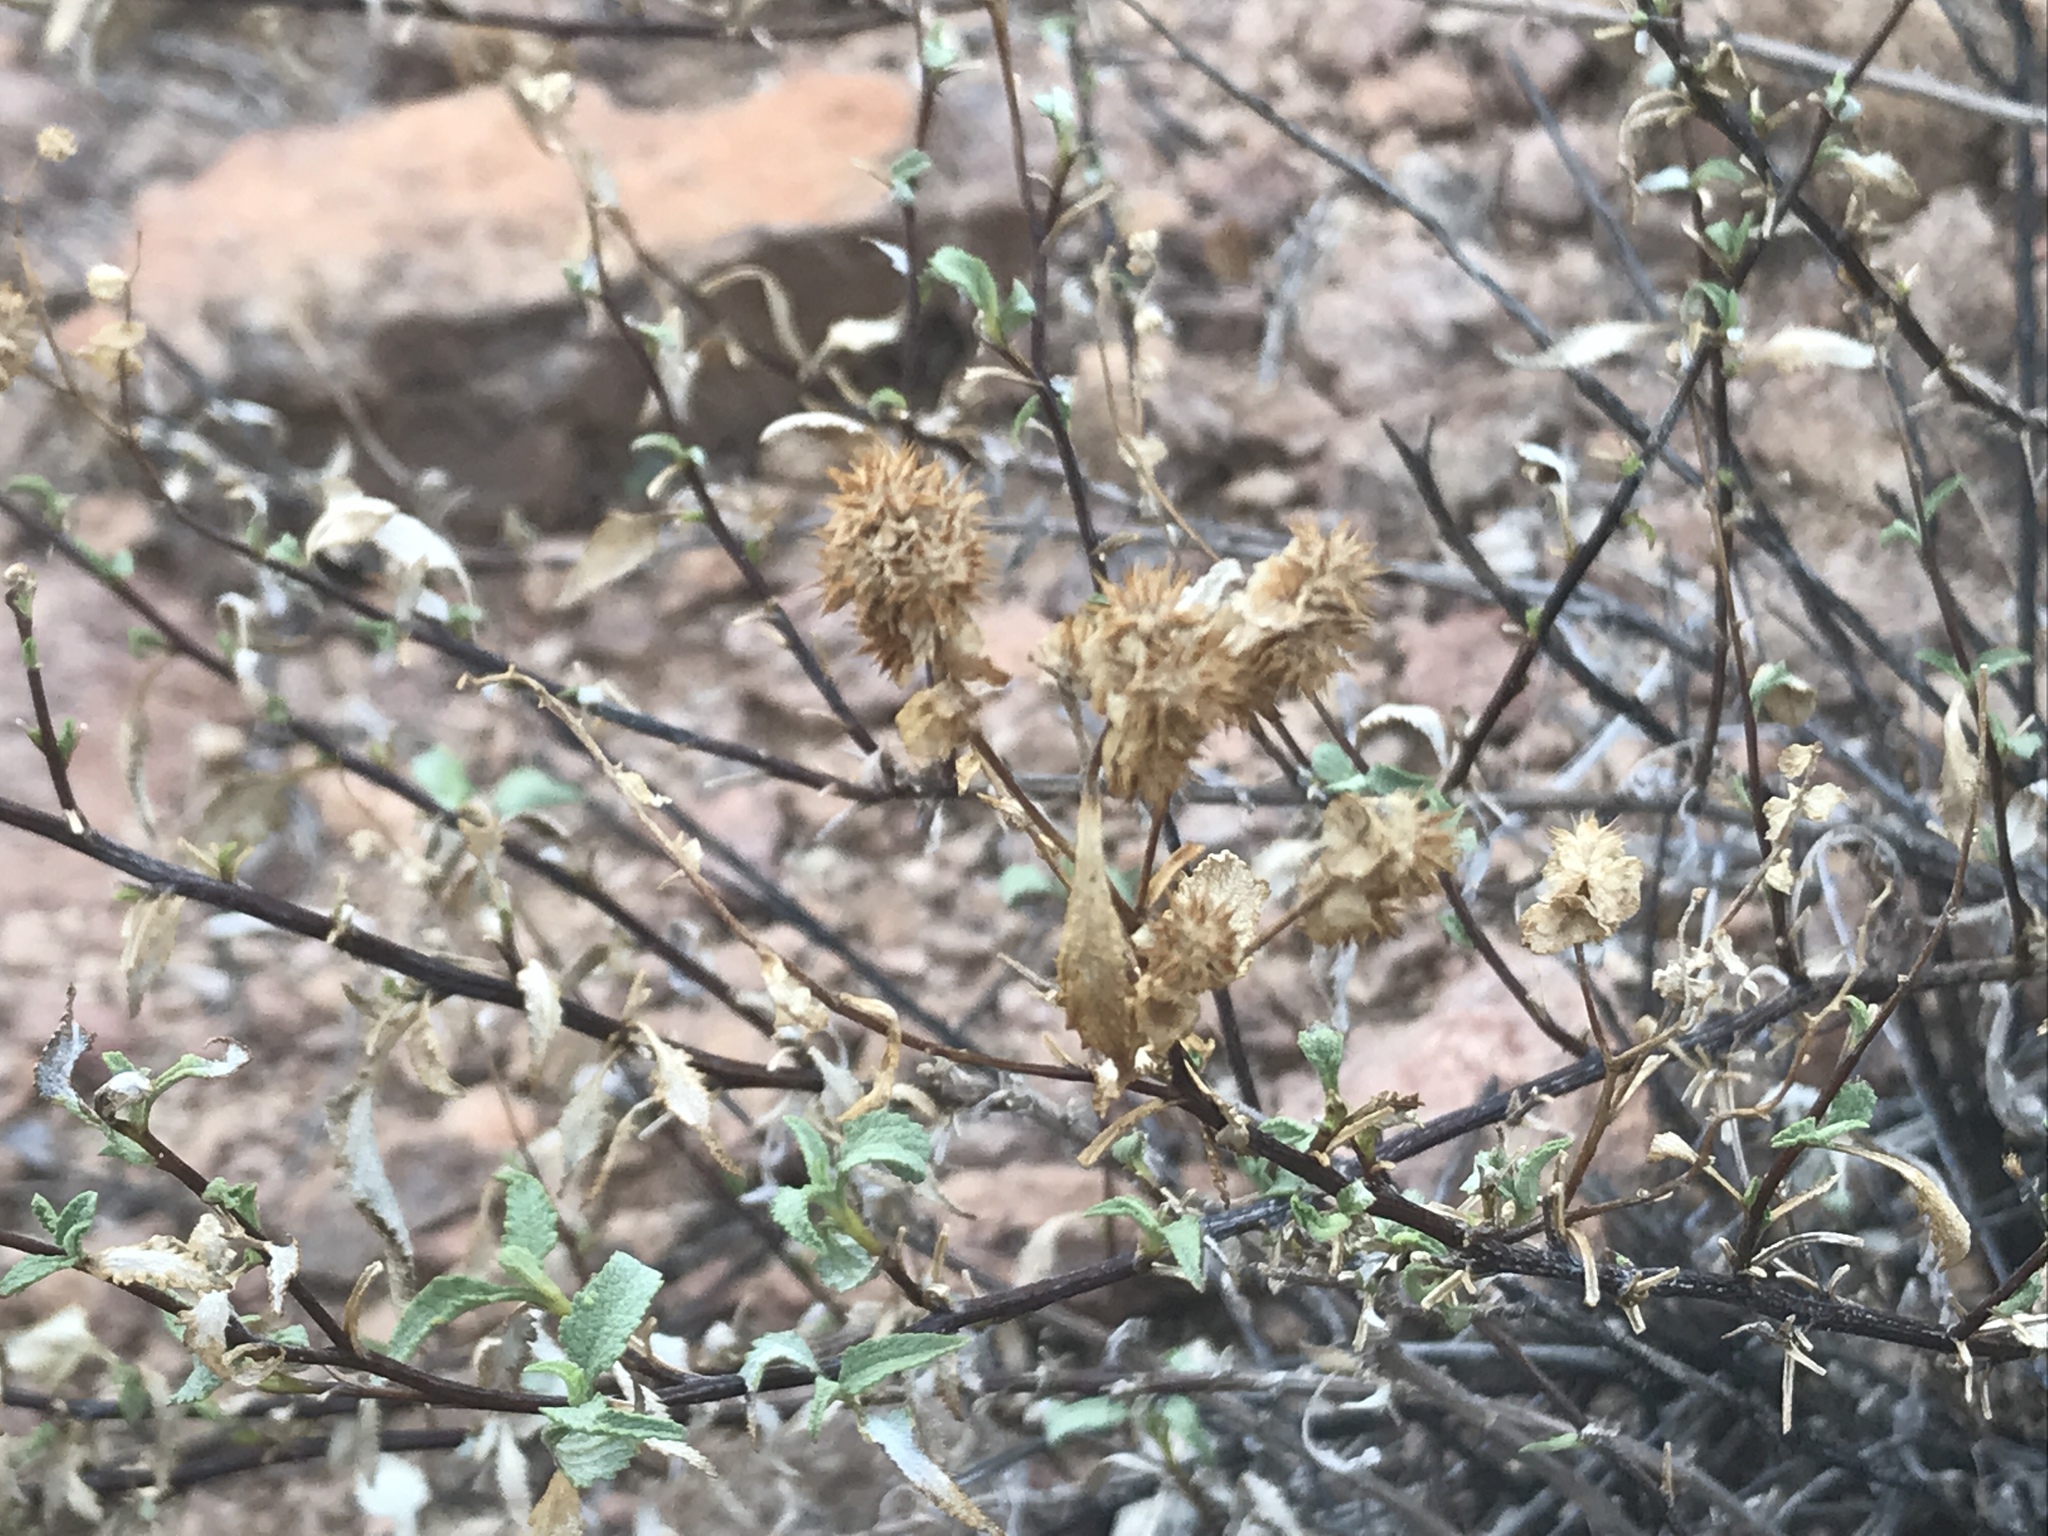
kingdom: Plantae
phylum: Tracheophyta
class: Magnoliopsida
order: Asterales
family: Asteraceae
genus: Ambrosia
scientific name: Ambrosia deltoidea
